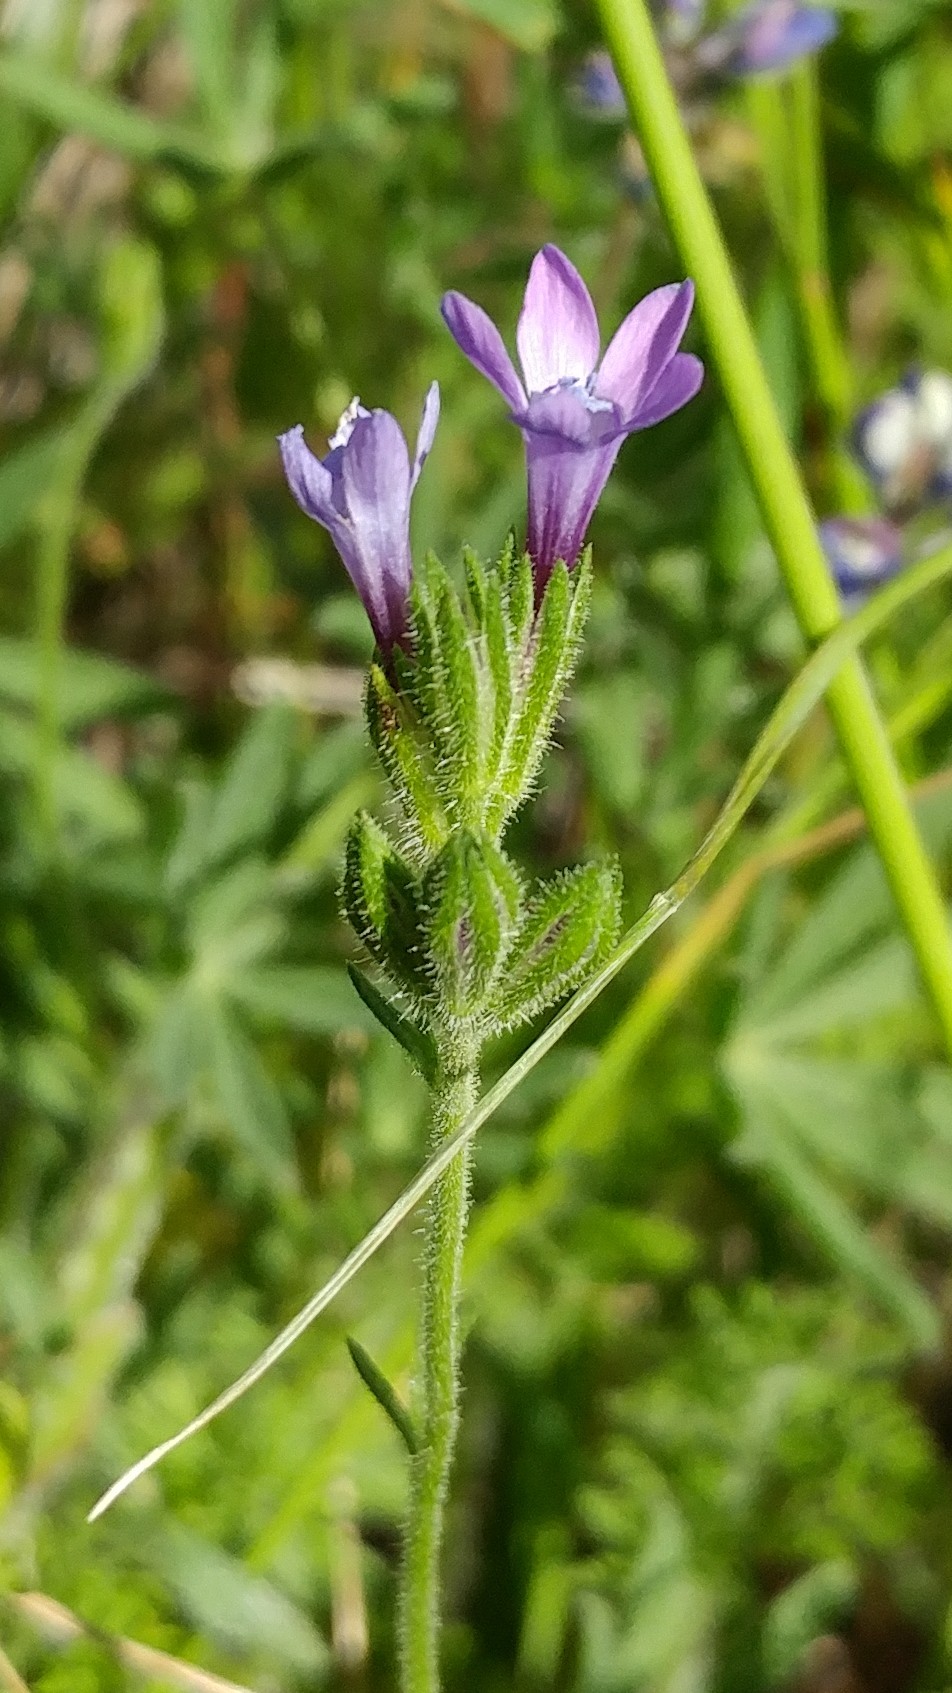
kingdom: Plantae
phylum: Tracheophyta
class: Magnoliopsida
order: Ericales
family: Polemoniaceae
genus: Gilia
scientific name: Gilia nevinii
